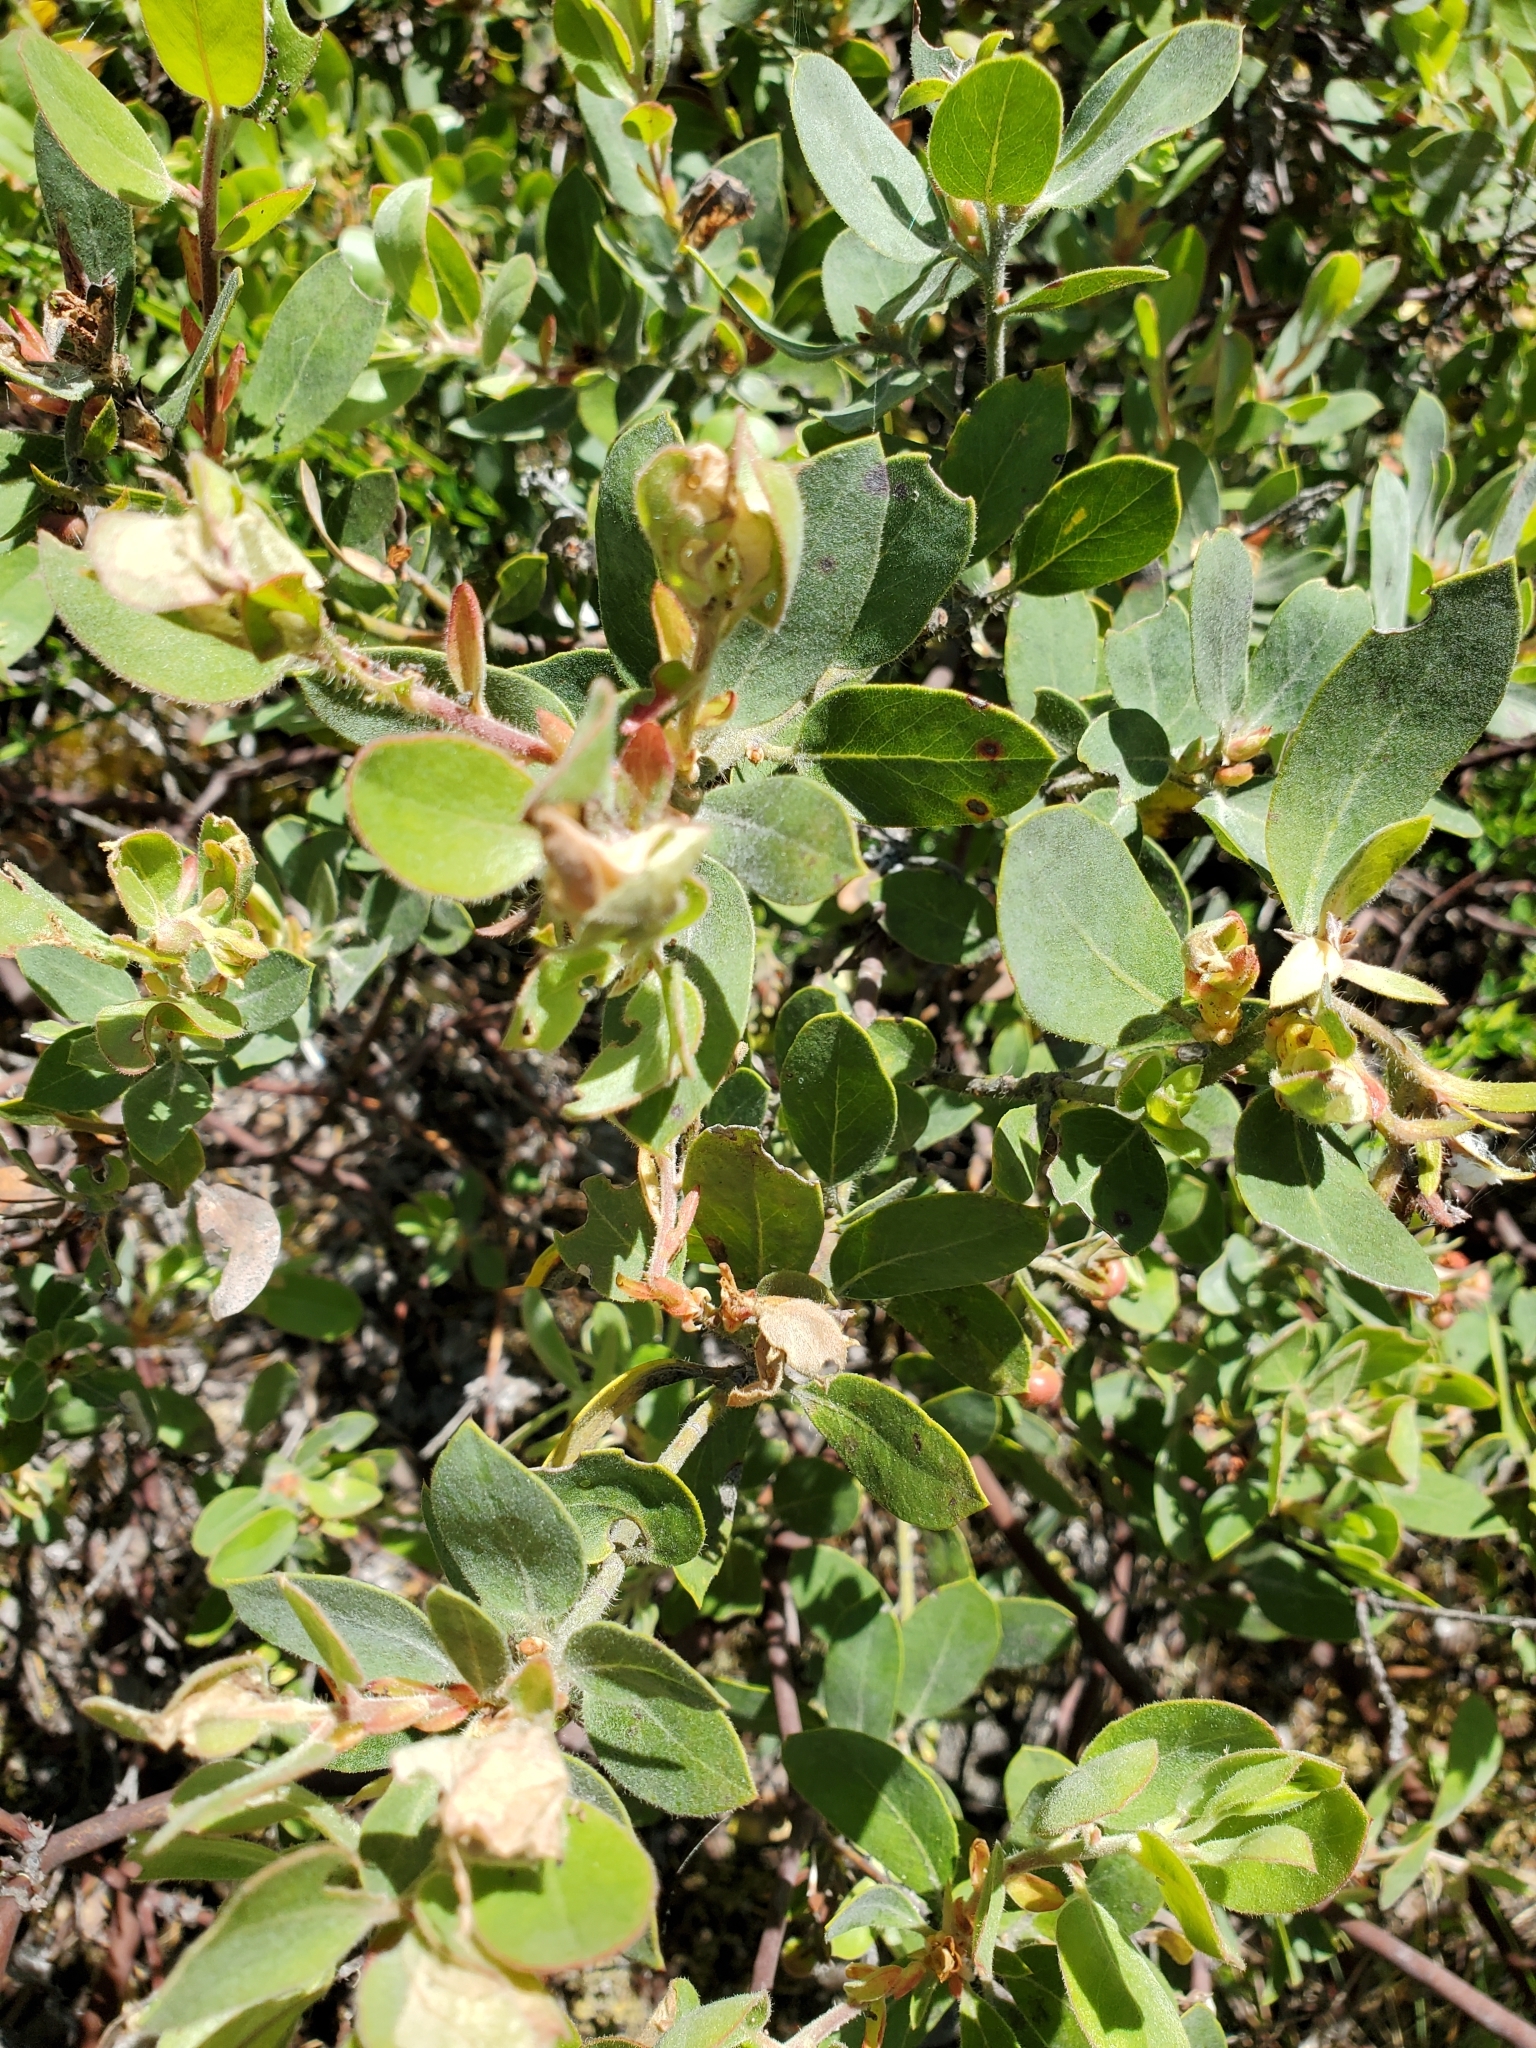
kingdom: Plantae
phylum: Tracheophyta
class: Magnoliopsida
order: Ericales
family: Ericaceae
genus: Arctostaphylos
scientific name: Arctostaphylos columbiana
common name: Bristly bearberry
